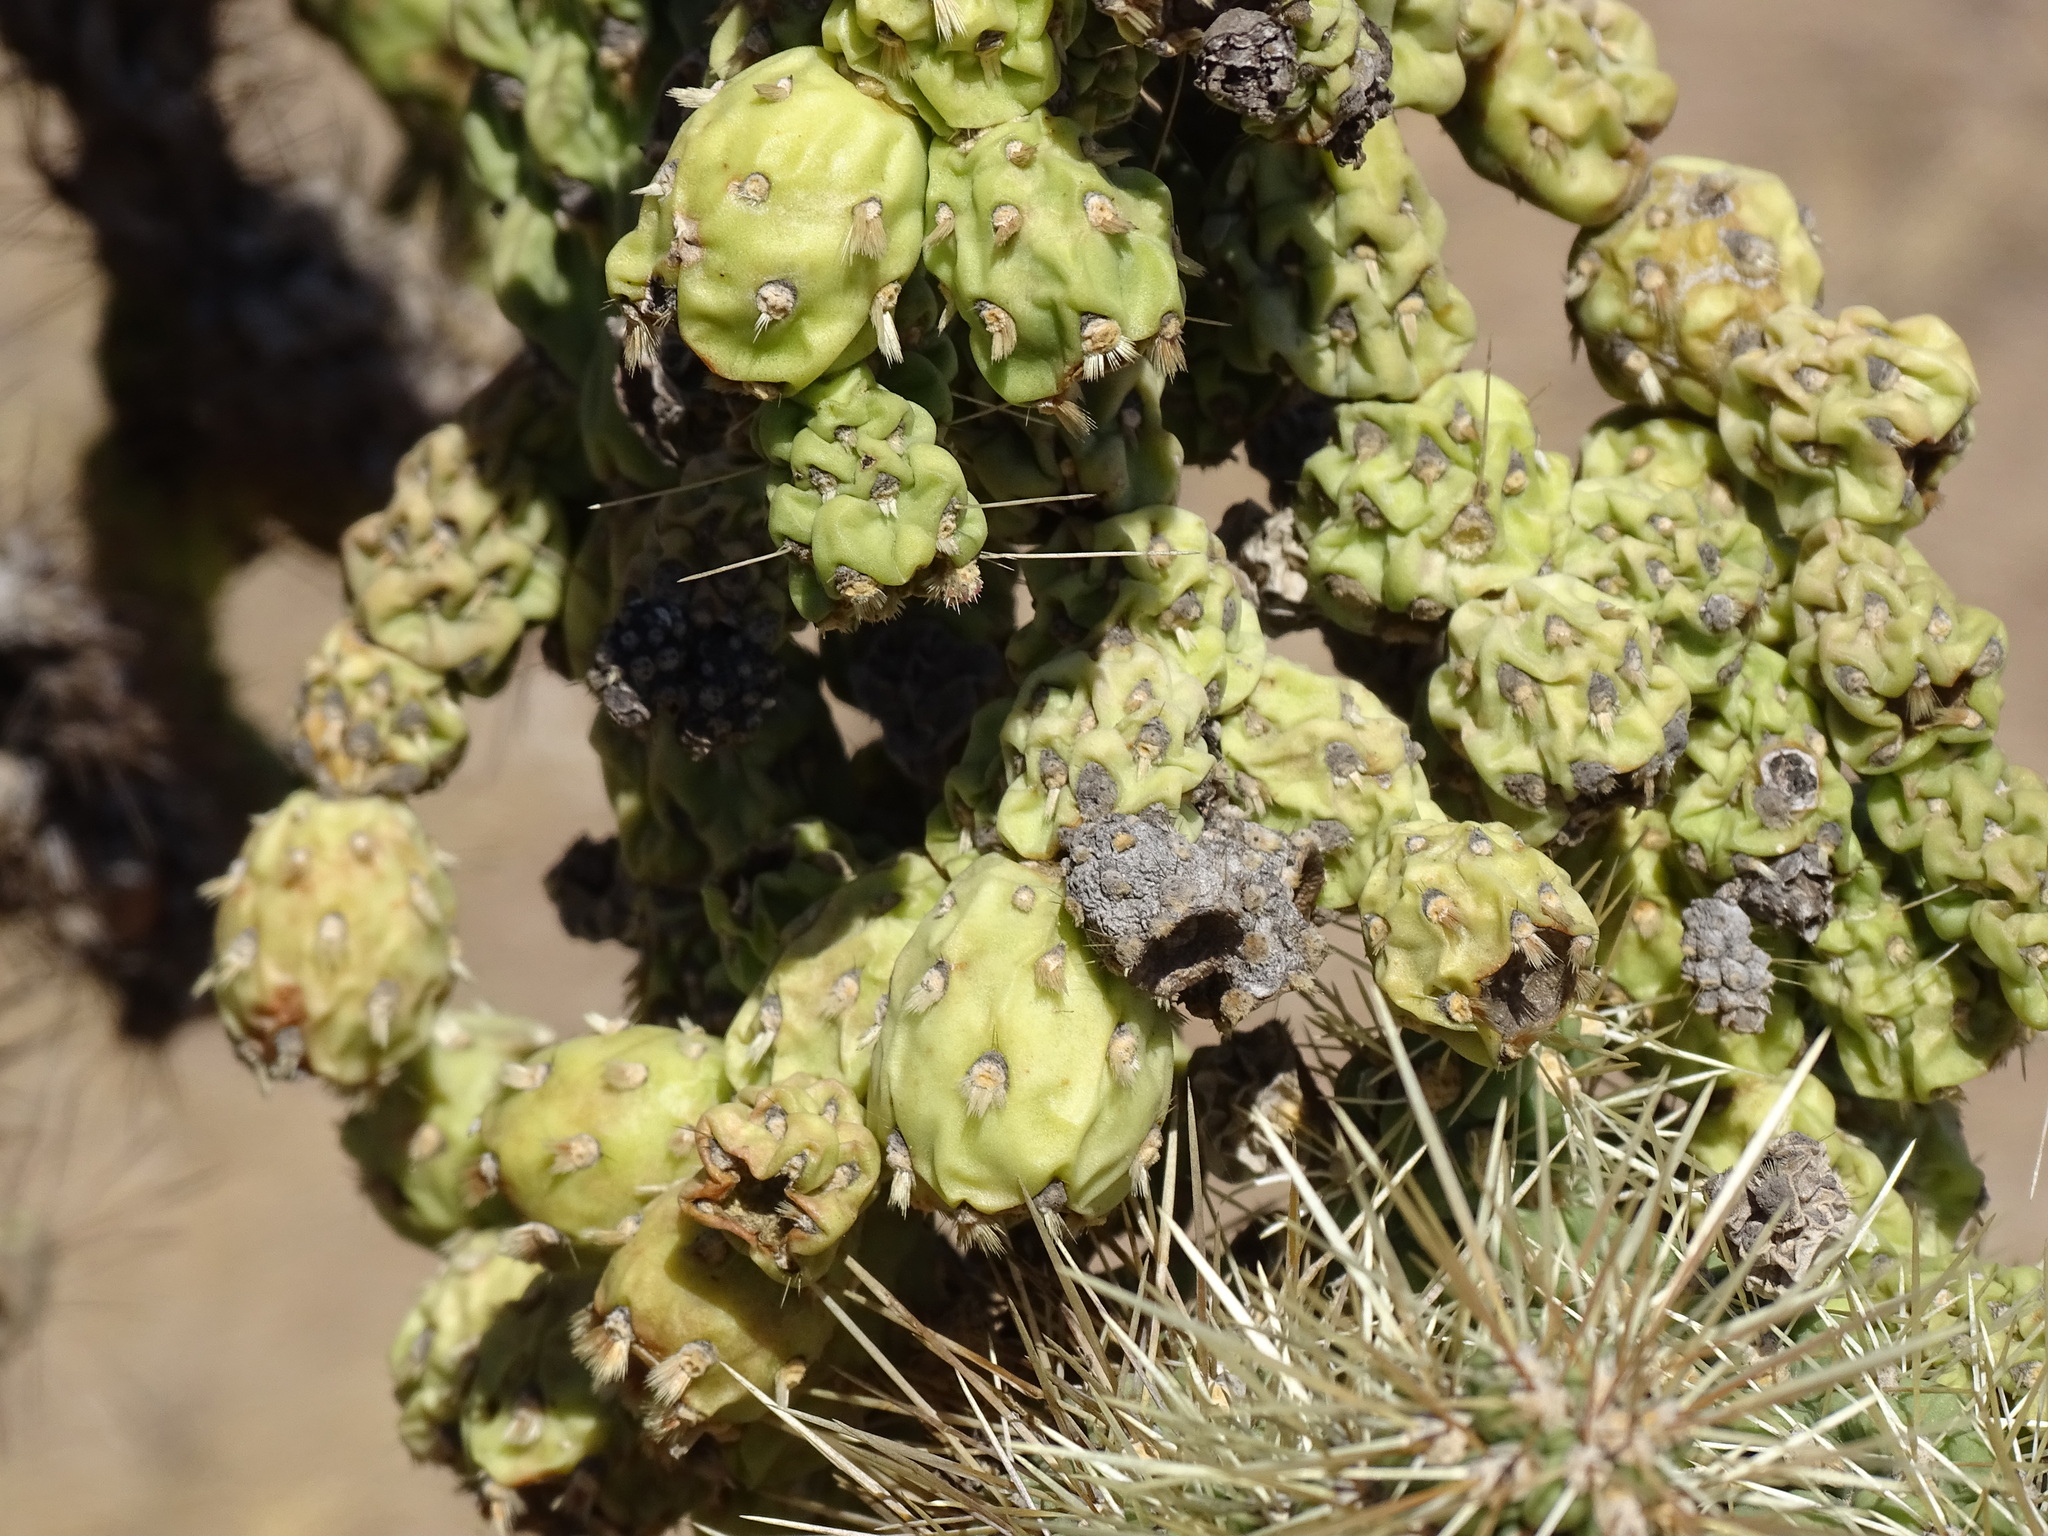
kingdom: Plantae
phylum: Tracheophyta
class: Magnoliopsida
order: Caryophyllales
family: Cactaceae
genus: Cylindropuntia
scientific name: Cylindropuntia fulgida
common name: Jumping cholla
